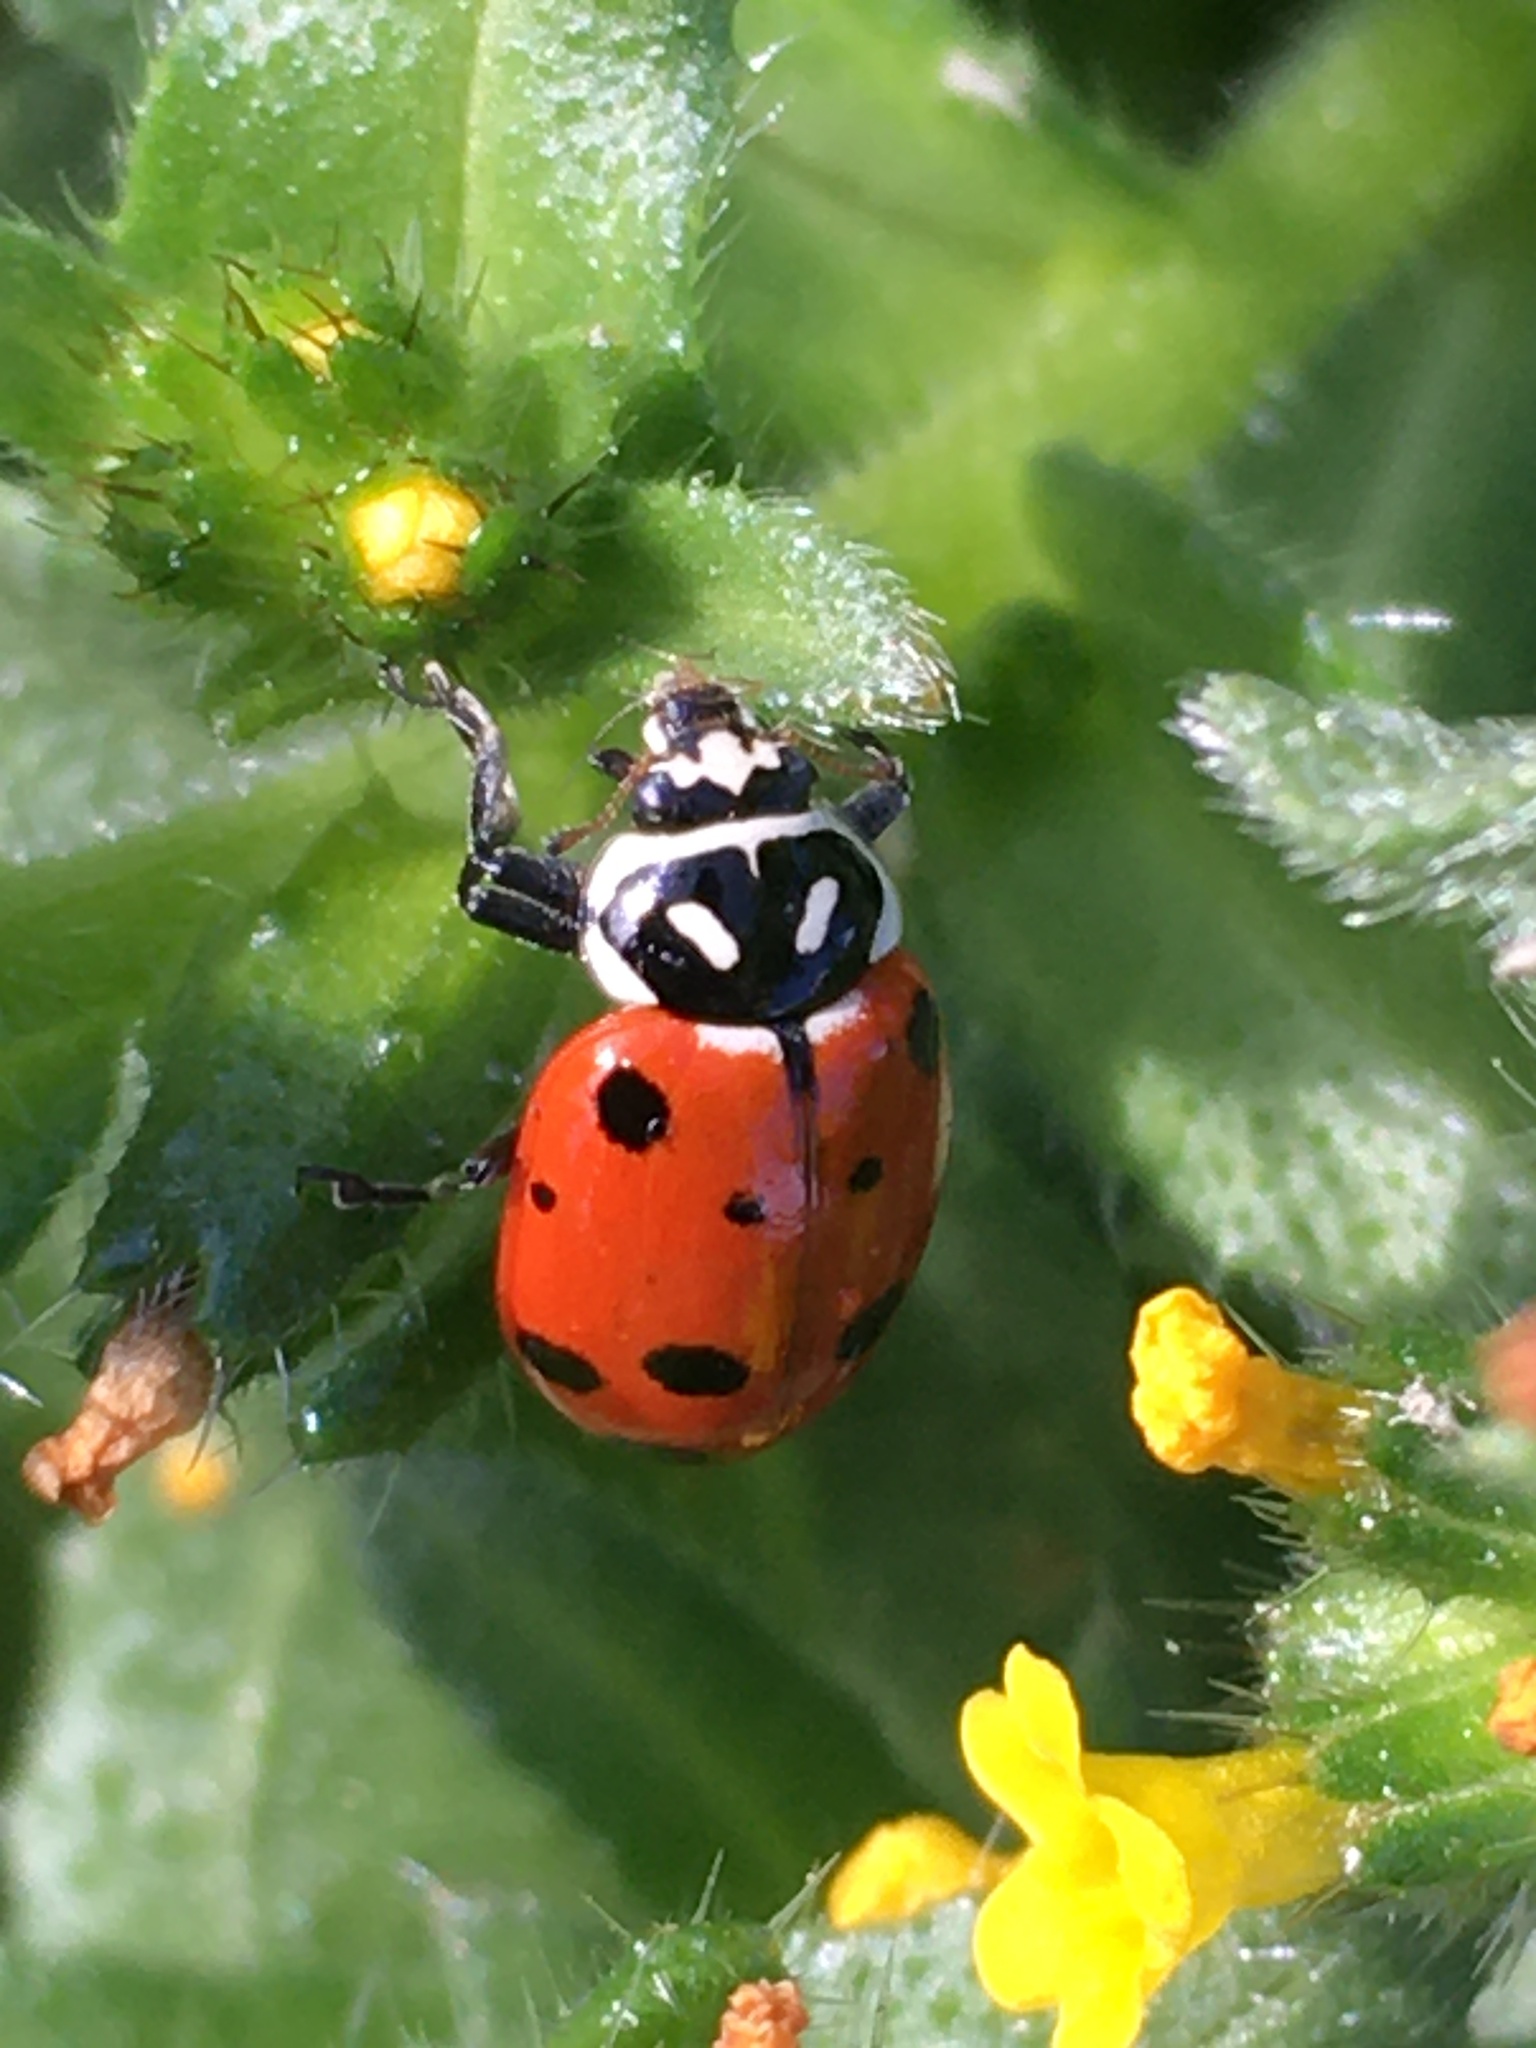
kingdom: Animalia
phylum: Arthropoda
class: Insecta
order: Coleoptera
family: Coccinellidae
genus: Hippodamia
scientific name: Hippodamia convergens
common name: Convergent lady beetle
